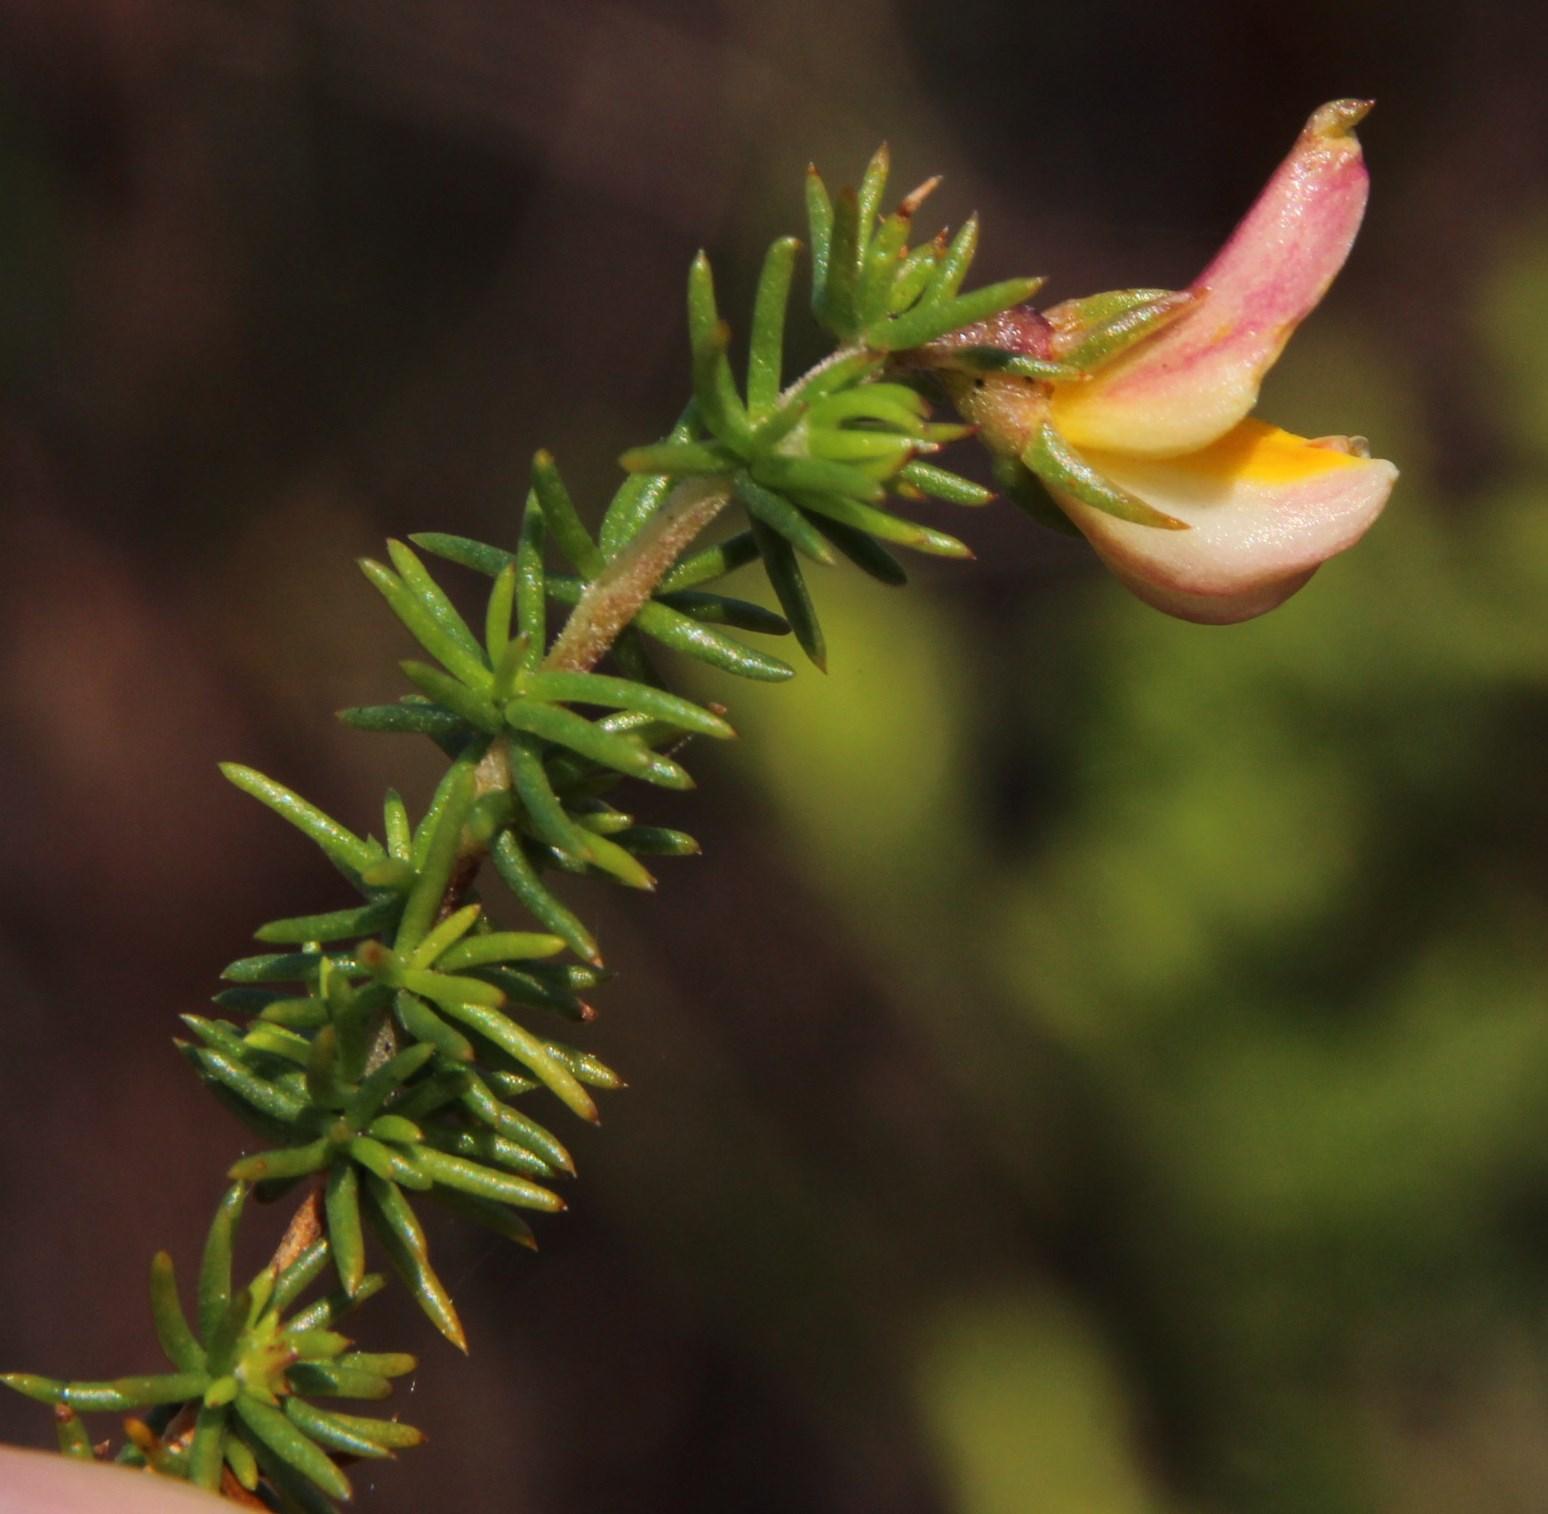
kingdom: Plantae
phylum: Tracheophyta
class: Magnoliopsida
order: Fabales
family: Fabaceae
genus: Aspalathus
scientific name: Aspalathus retroflexa
